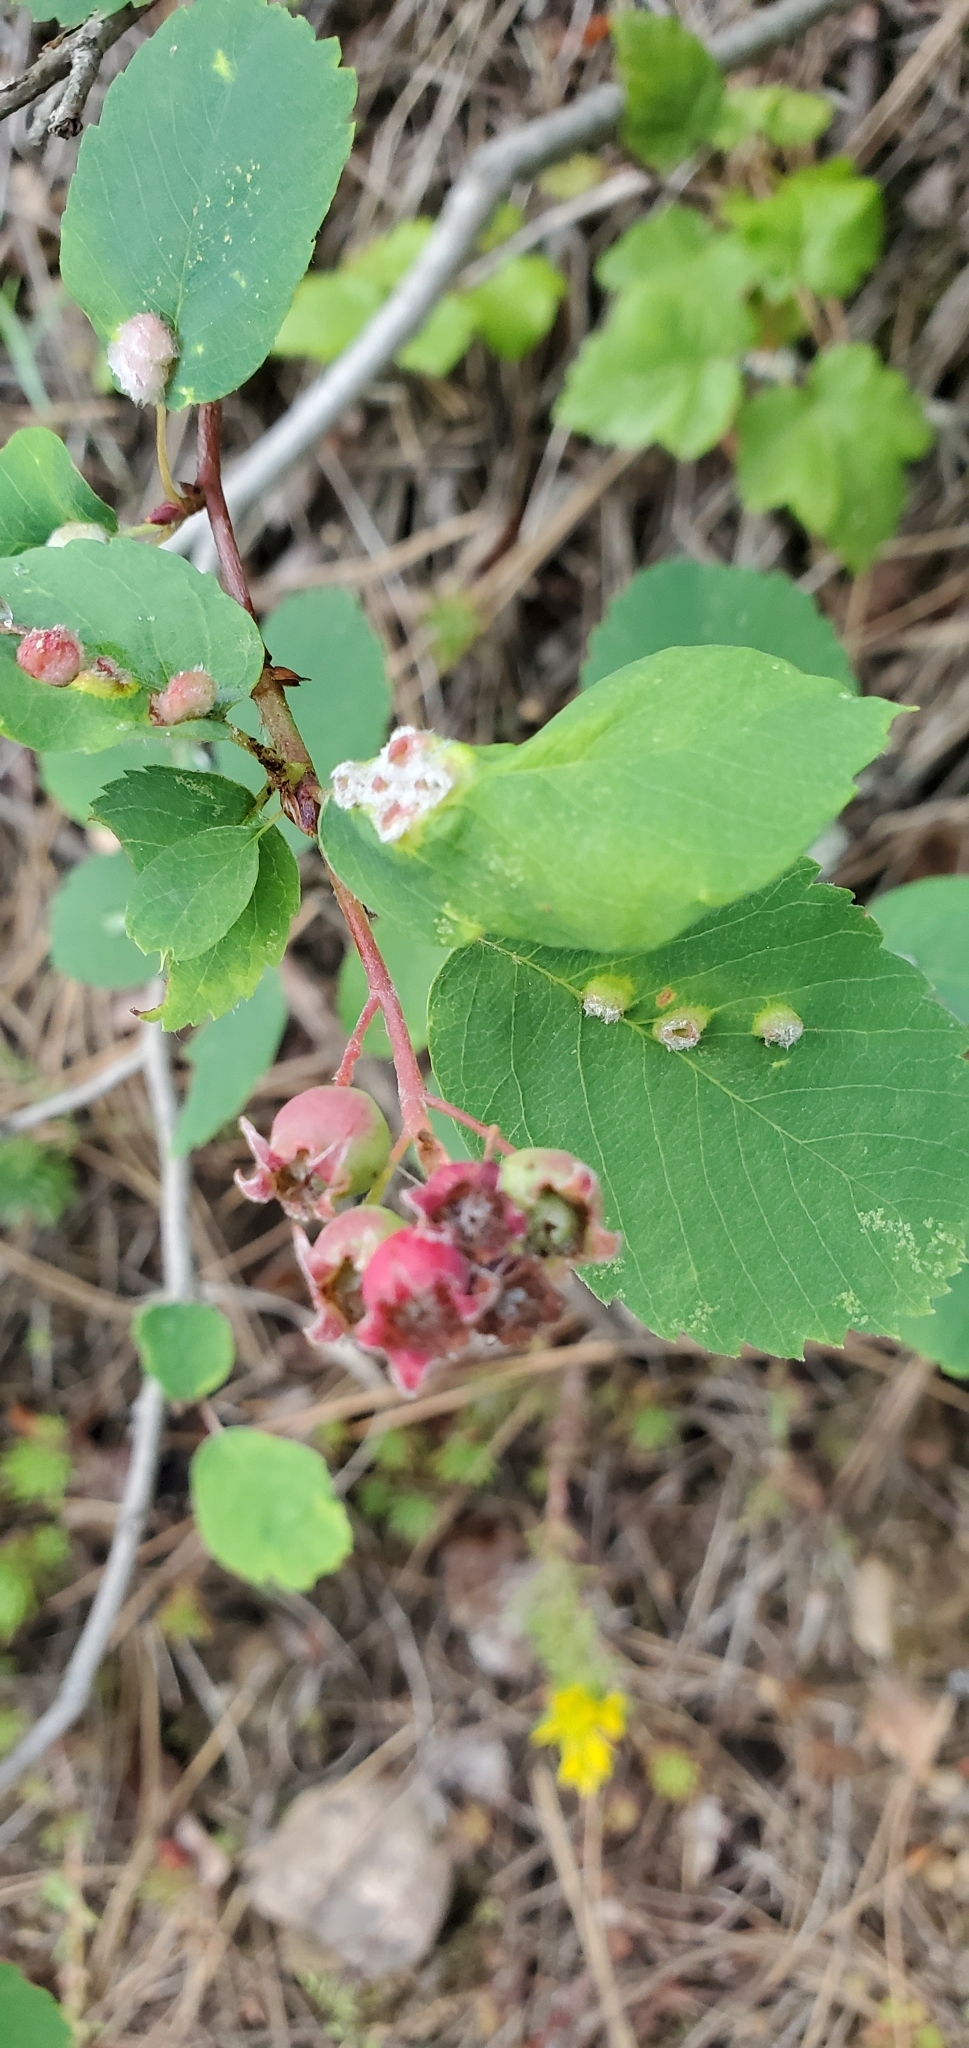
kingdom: Plantae
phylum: Tracheophyta
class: Magnoliopsida
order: Rosales
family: Rosaceae
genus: Amelanchier
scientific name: Amelanchier alnifolia
